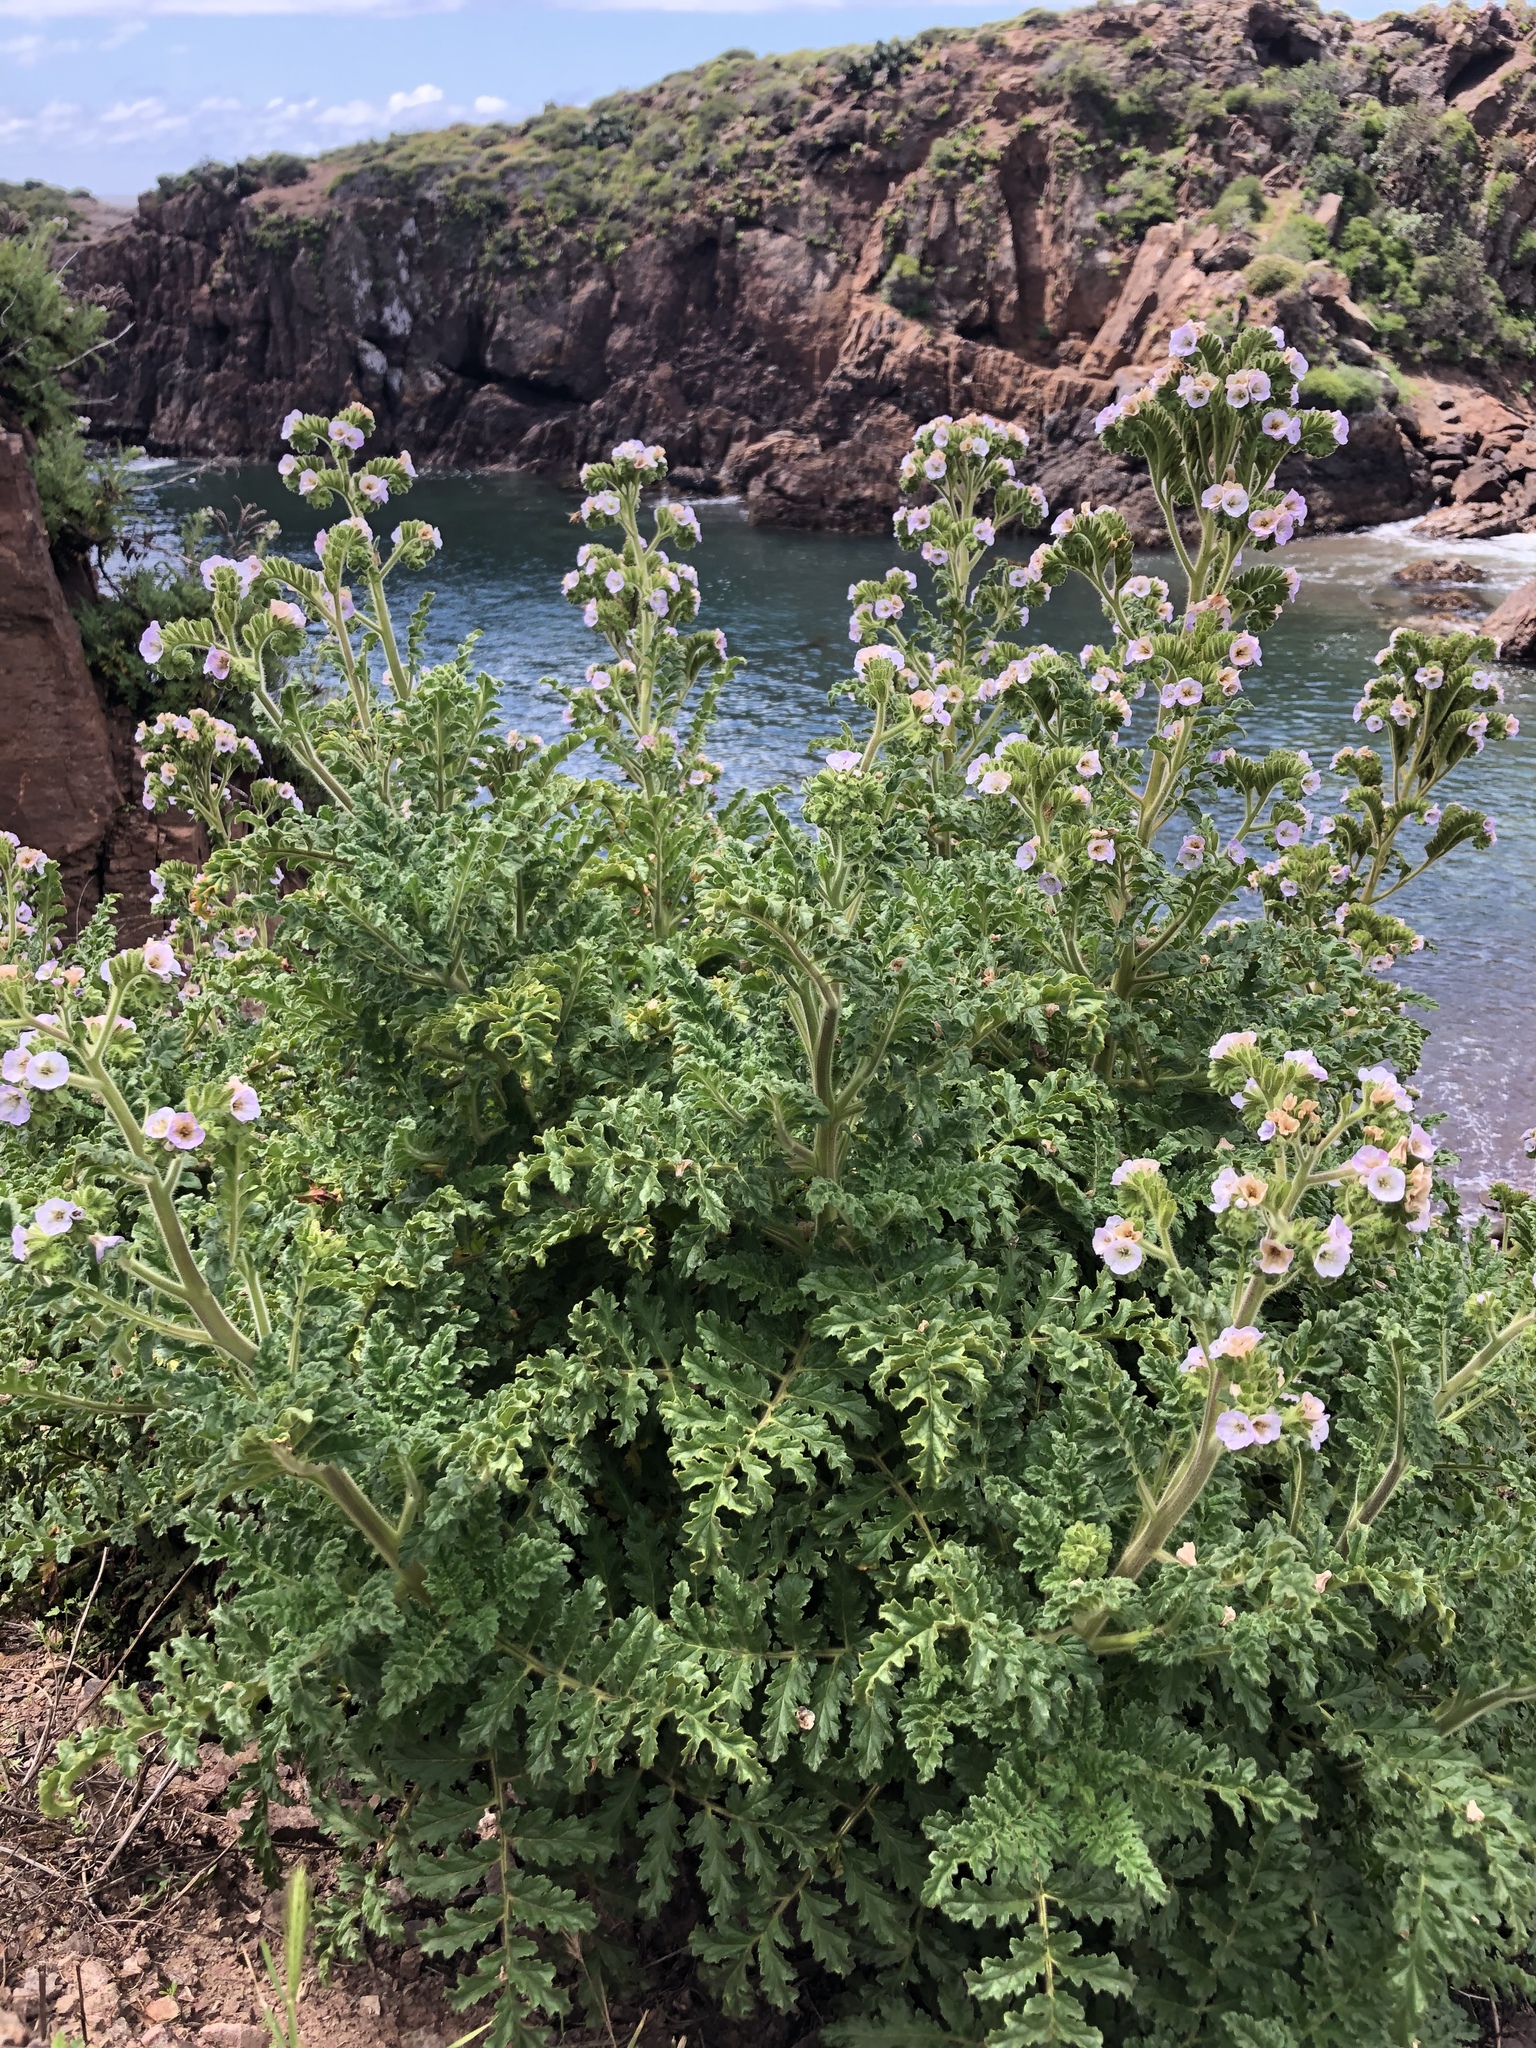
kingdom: Plantae
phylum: Tracheophyta
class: Magnoliopsida
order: Boraginales
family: Hydrophyllaceae
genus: Phacelia
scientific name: Phacelia ixodes
